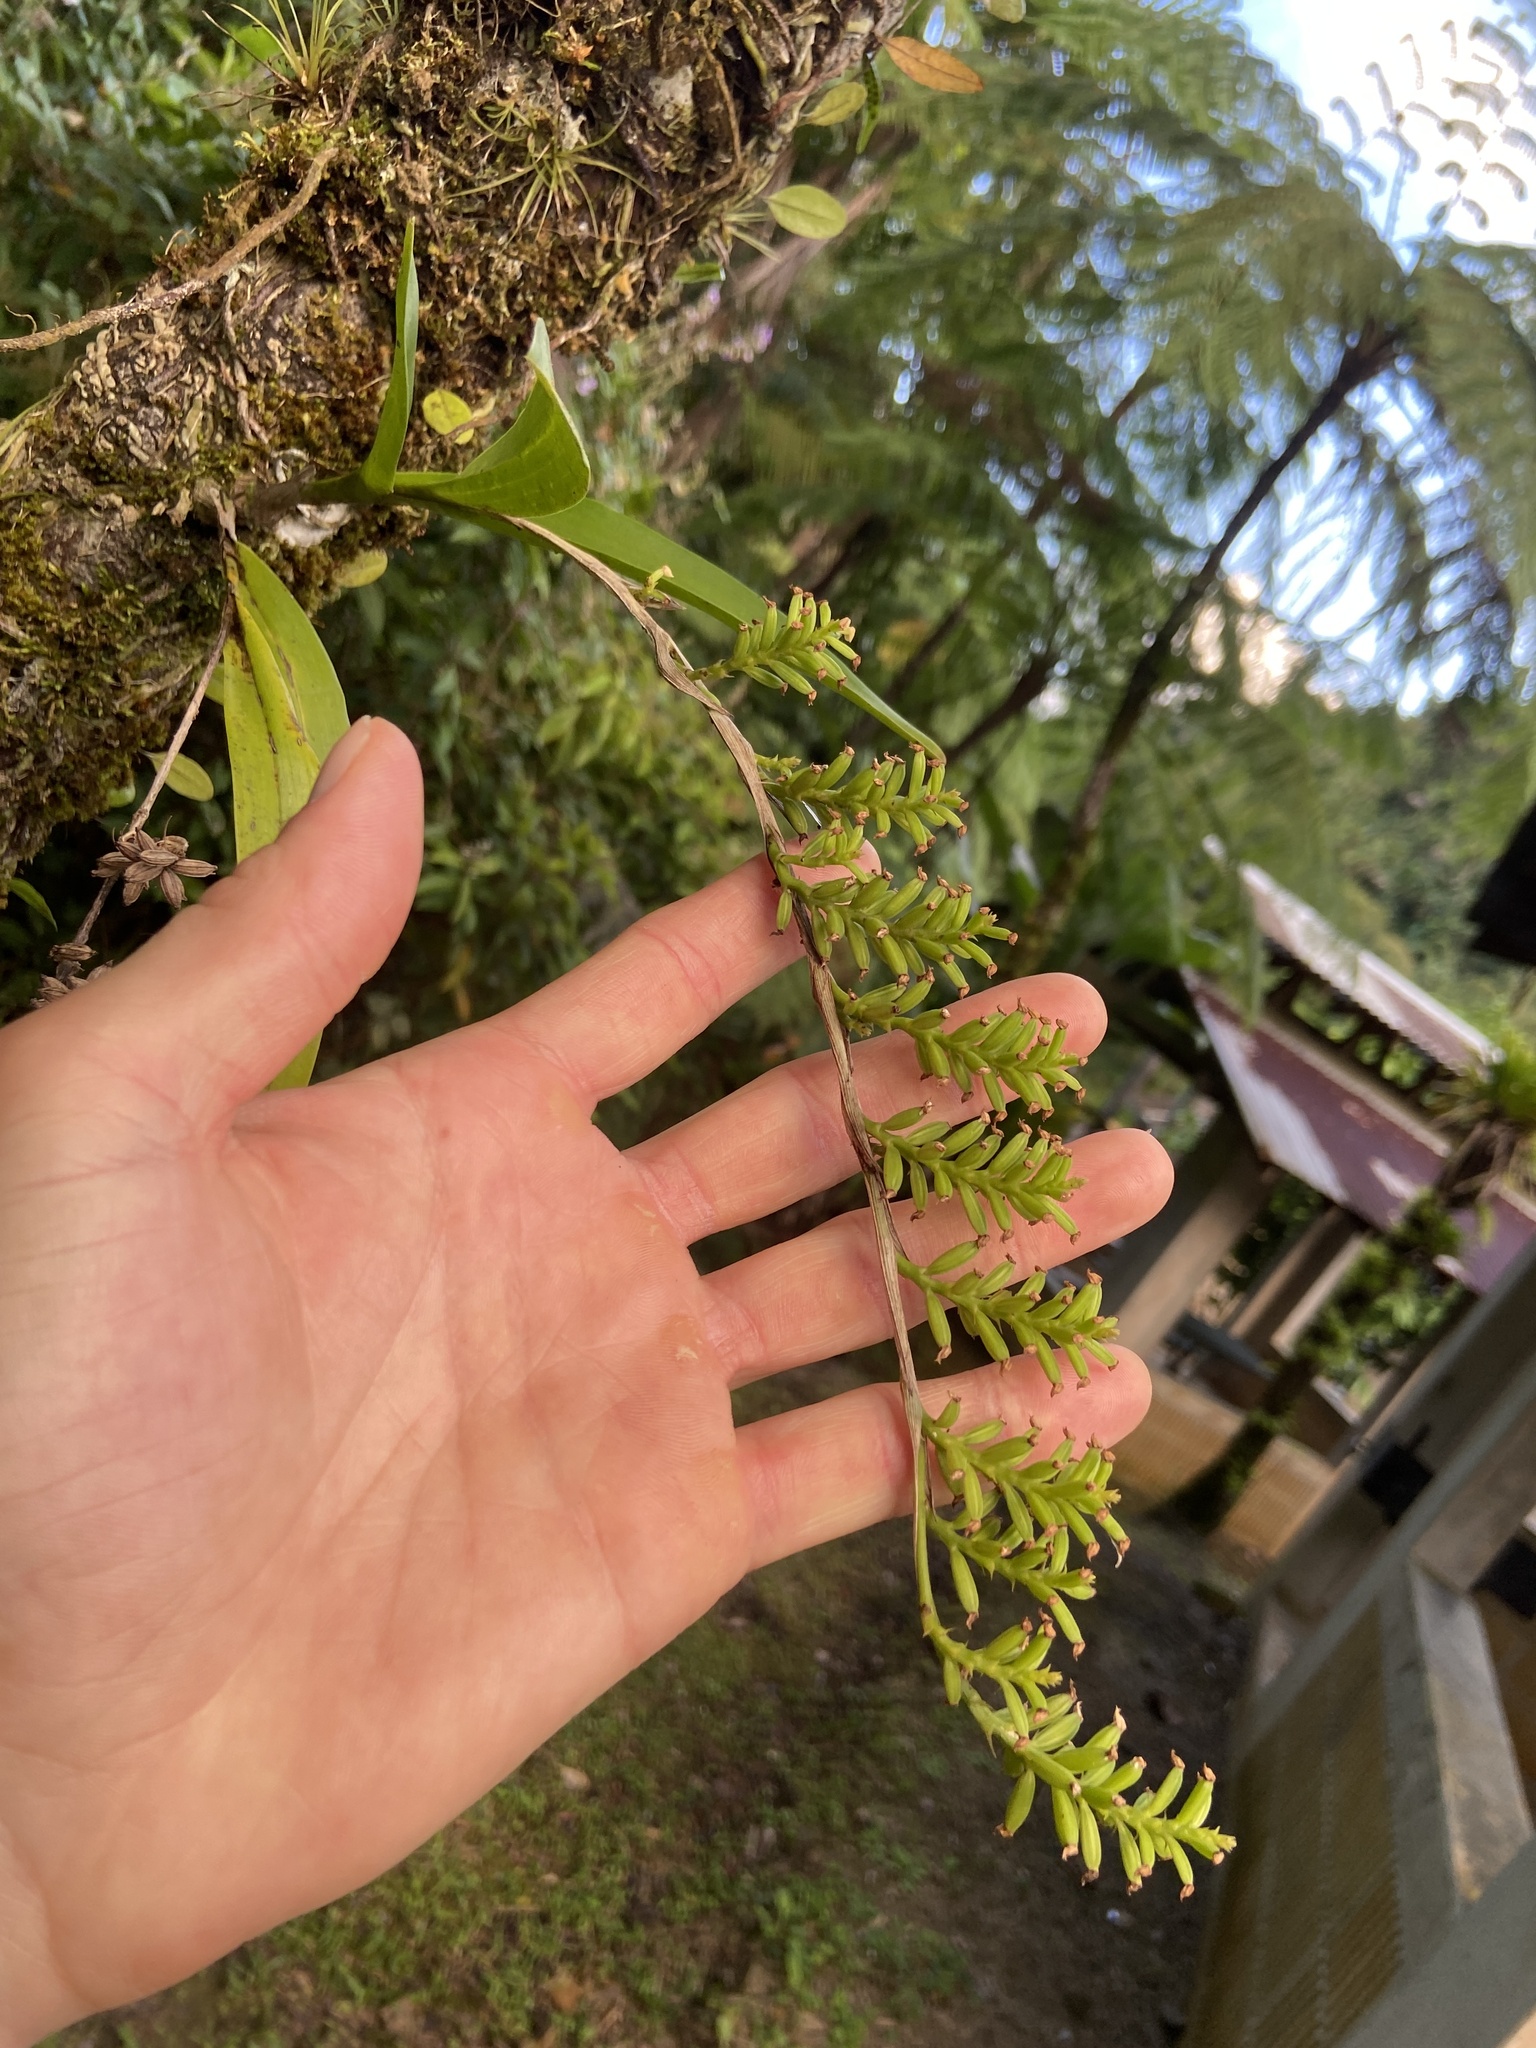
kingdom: Plantae
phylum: Tracheophyta
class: Liliopsida
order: Asparagales
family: Orchidaceae
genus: Polystachya
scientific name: Polystachya concreta
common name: Greater yellowspike orchid
